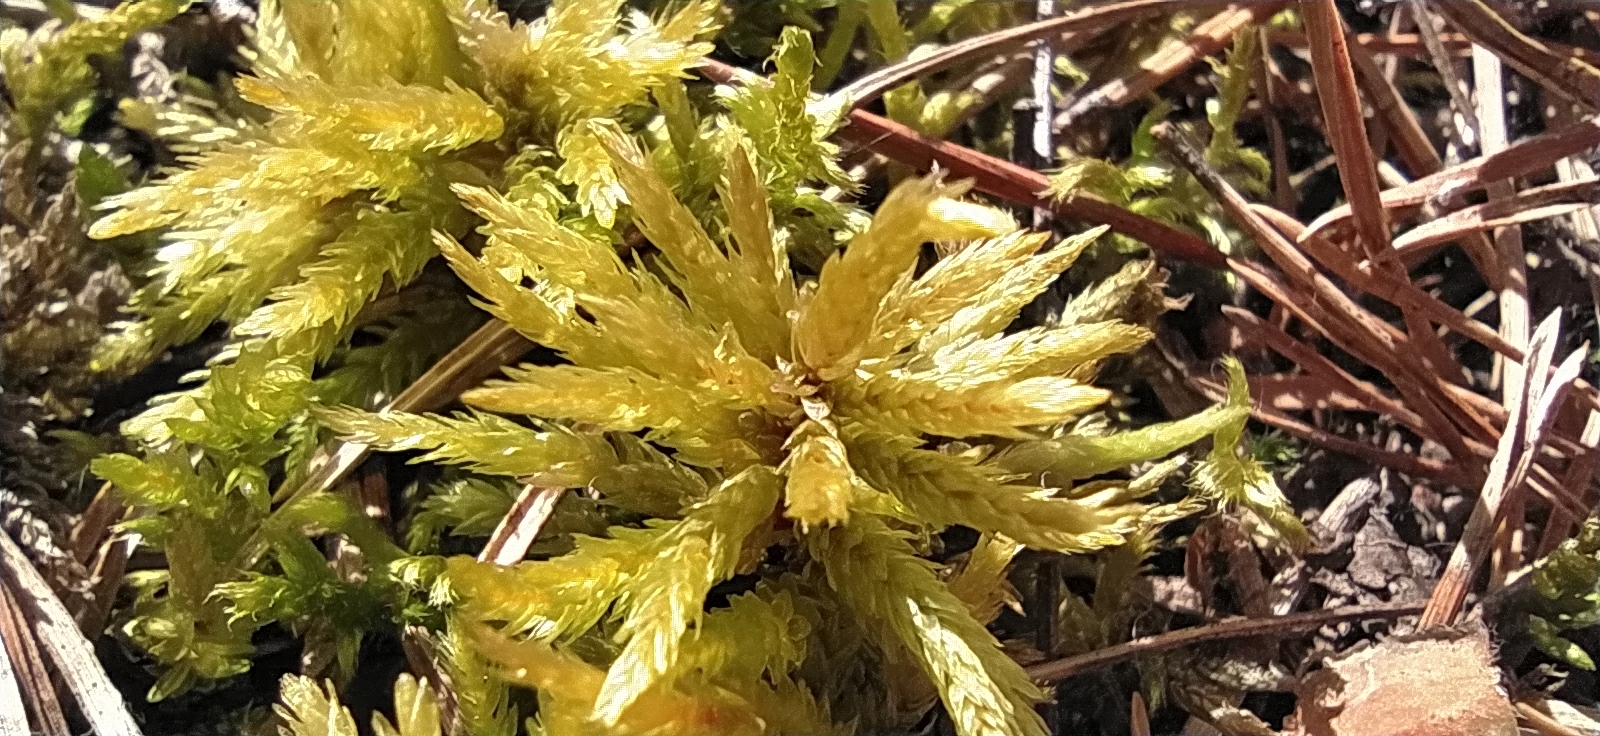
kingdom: Plantae
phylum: Bryophyta
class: Bryopsida
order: Hypnales
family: Climaciaceae
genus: Climacium
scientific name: Climacium dendroides
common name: Northern tree moss
